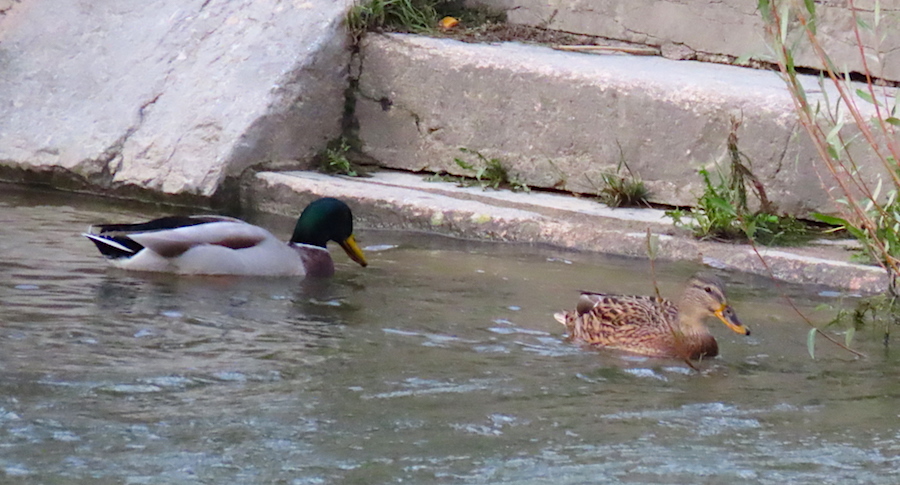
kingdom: Animalia
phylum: Chordata
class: Aves
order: Anseriformes
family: Anatidae
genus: Anas
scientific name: Anas platyrhynchos
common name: Mallard
